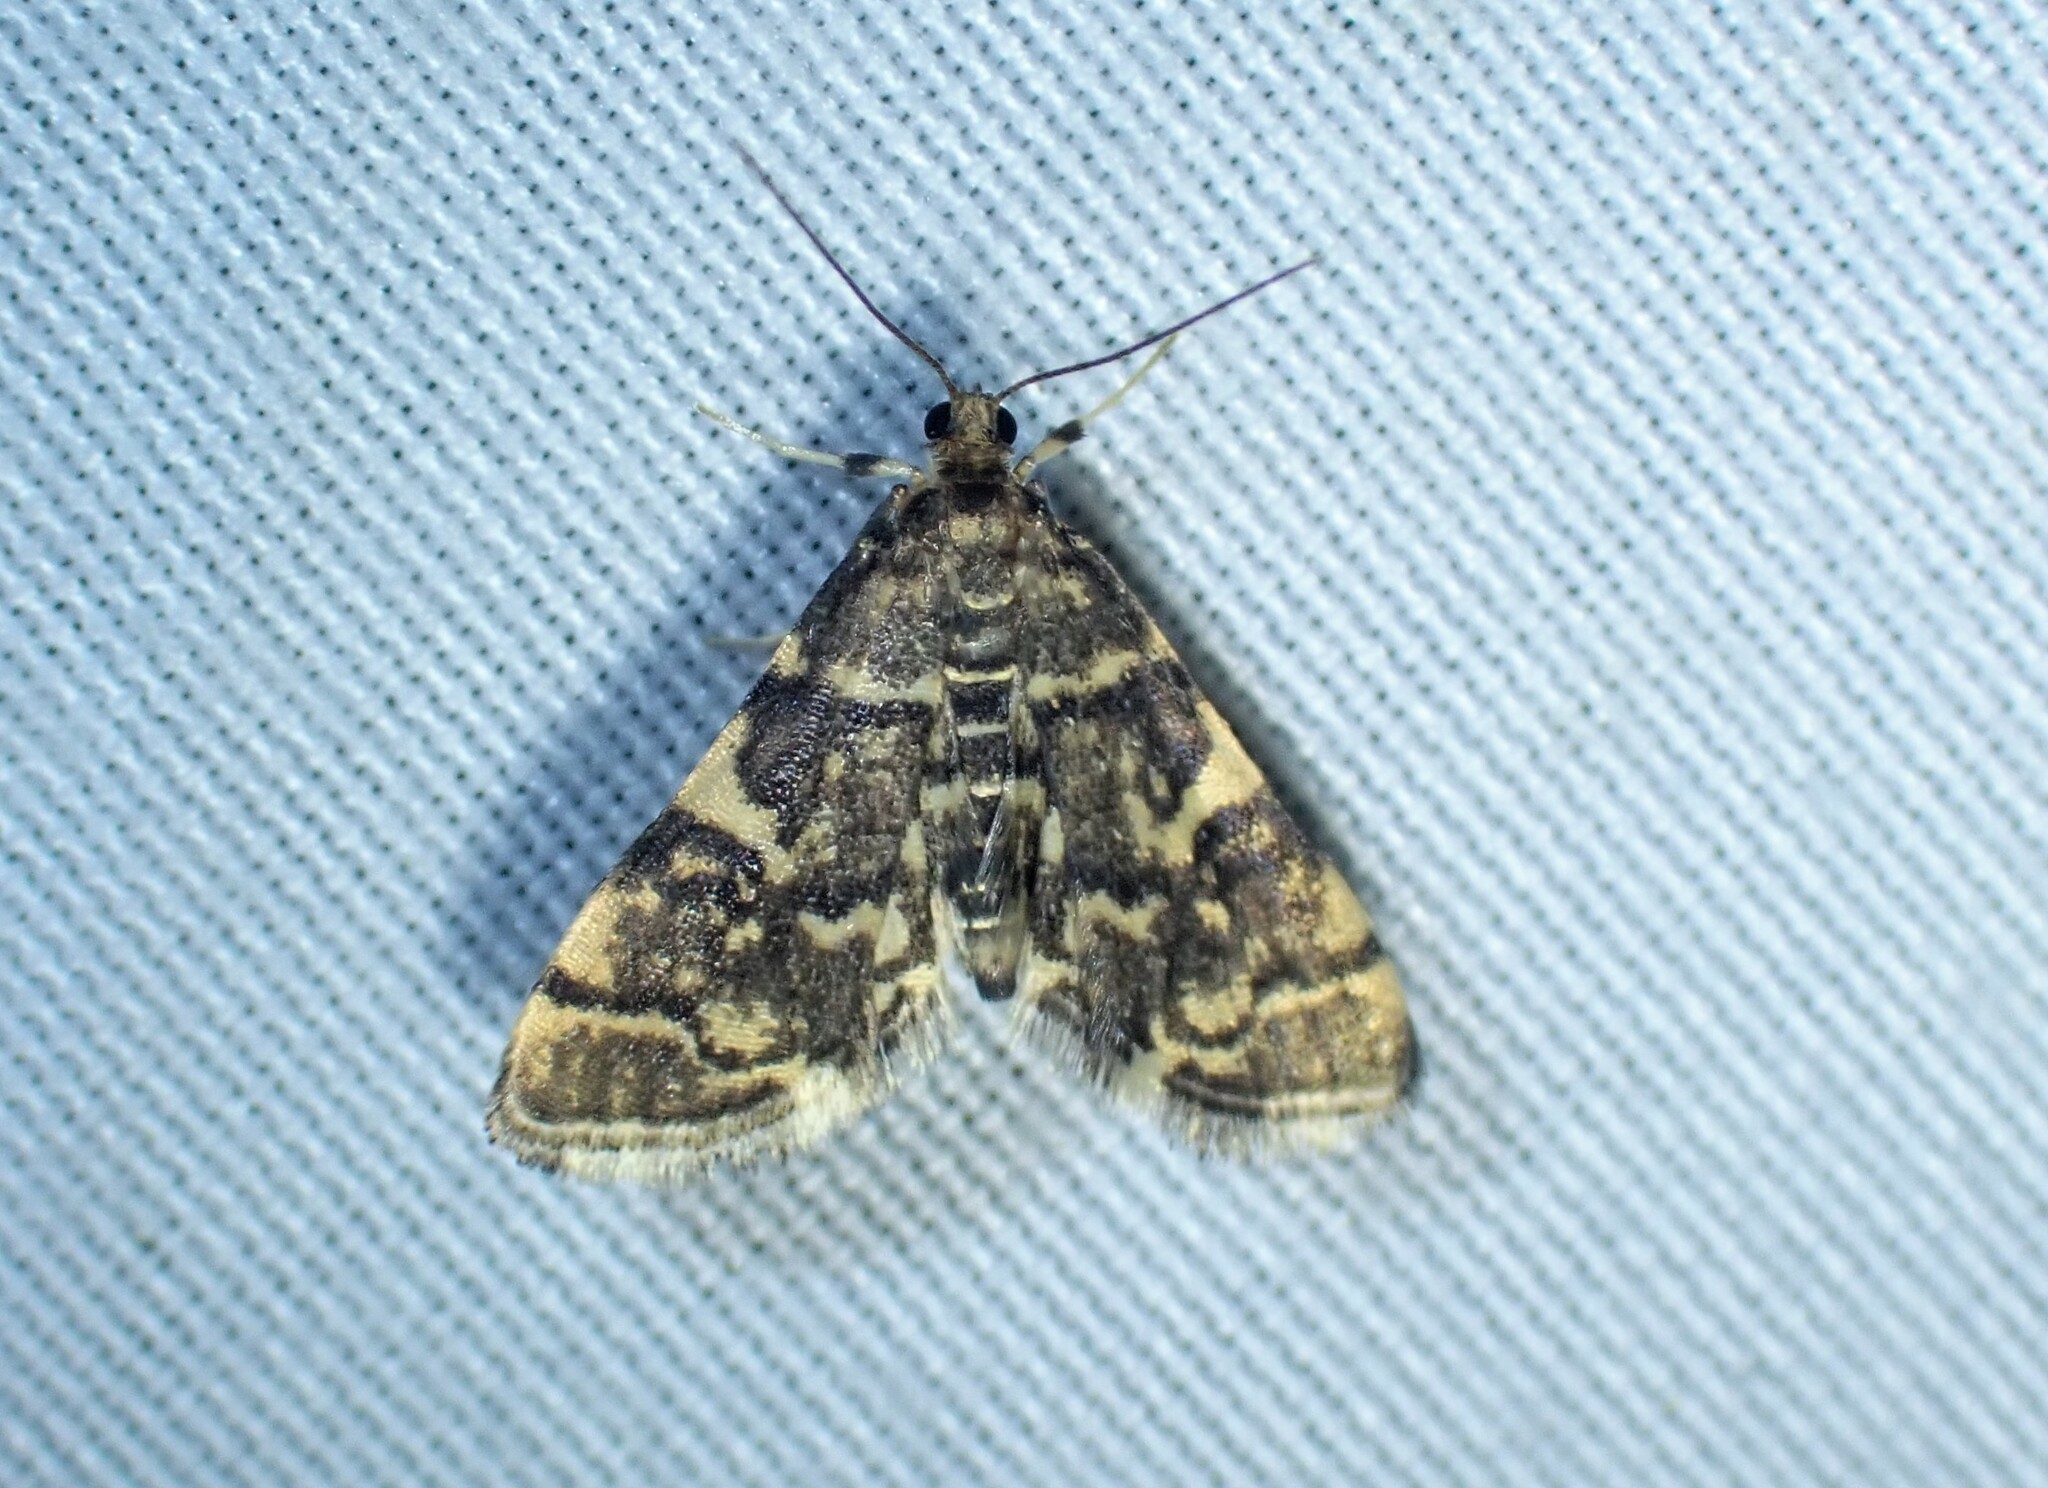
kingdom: Animalia
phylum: Arthropoda
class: Insecta
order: Lepidoptera
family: Crambidae
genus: Anageshna
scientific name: Anageshna primordialis
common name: Yellow-spotted webworm moth
